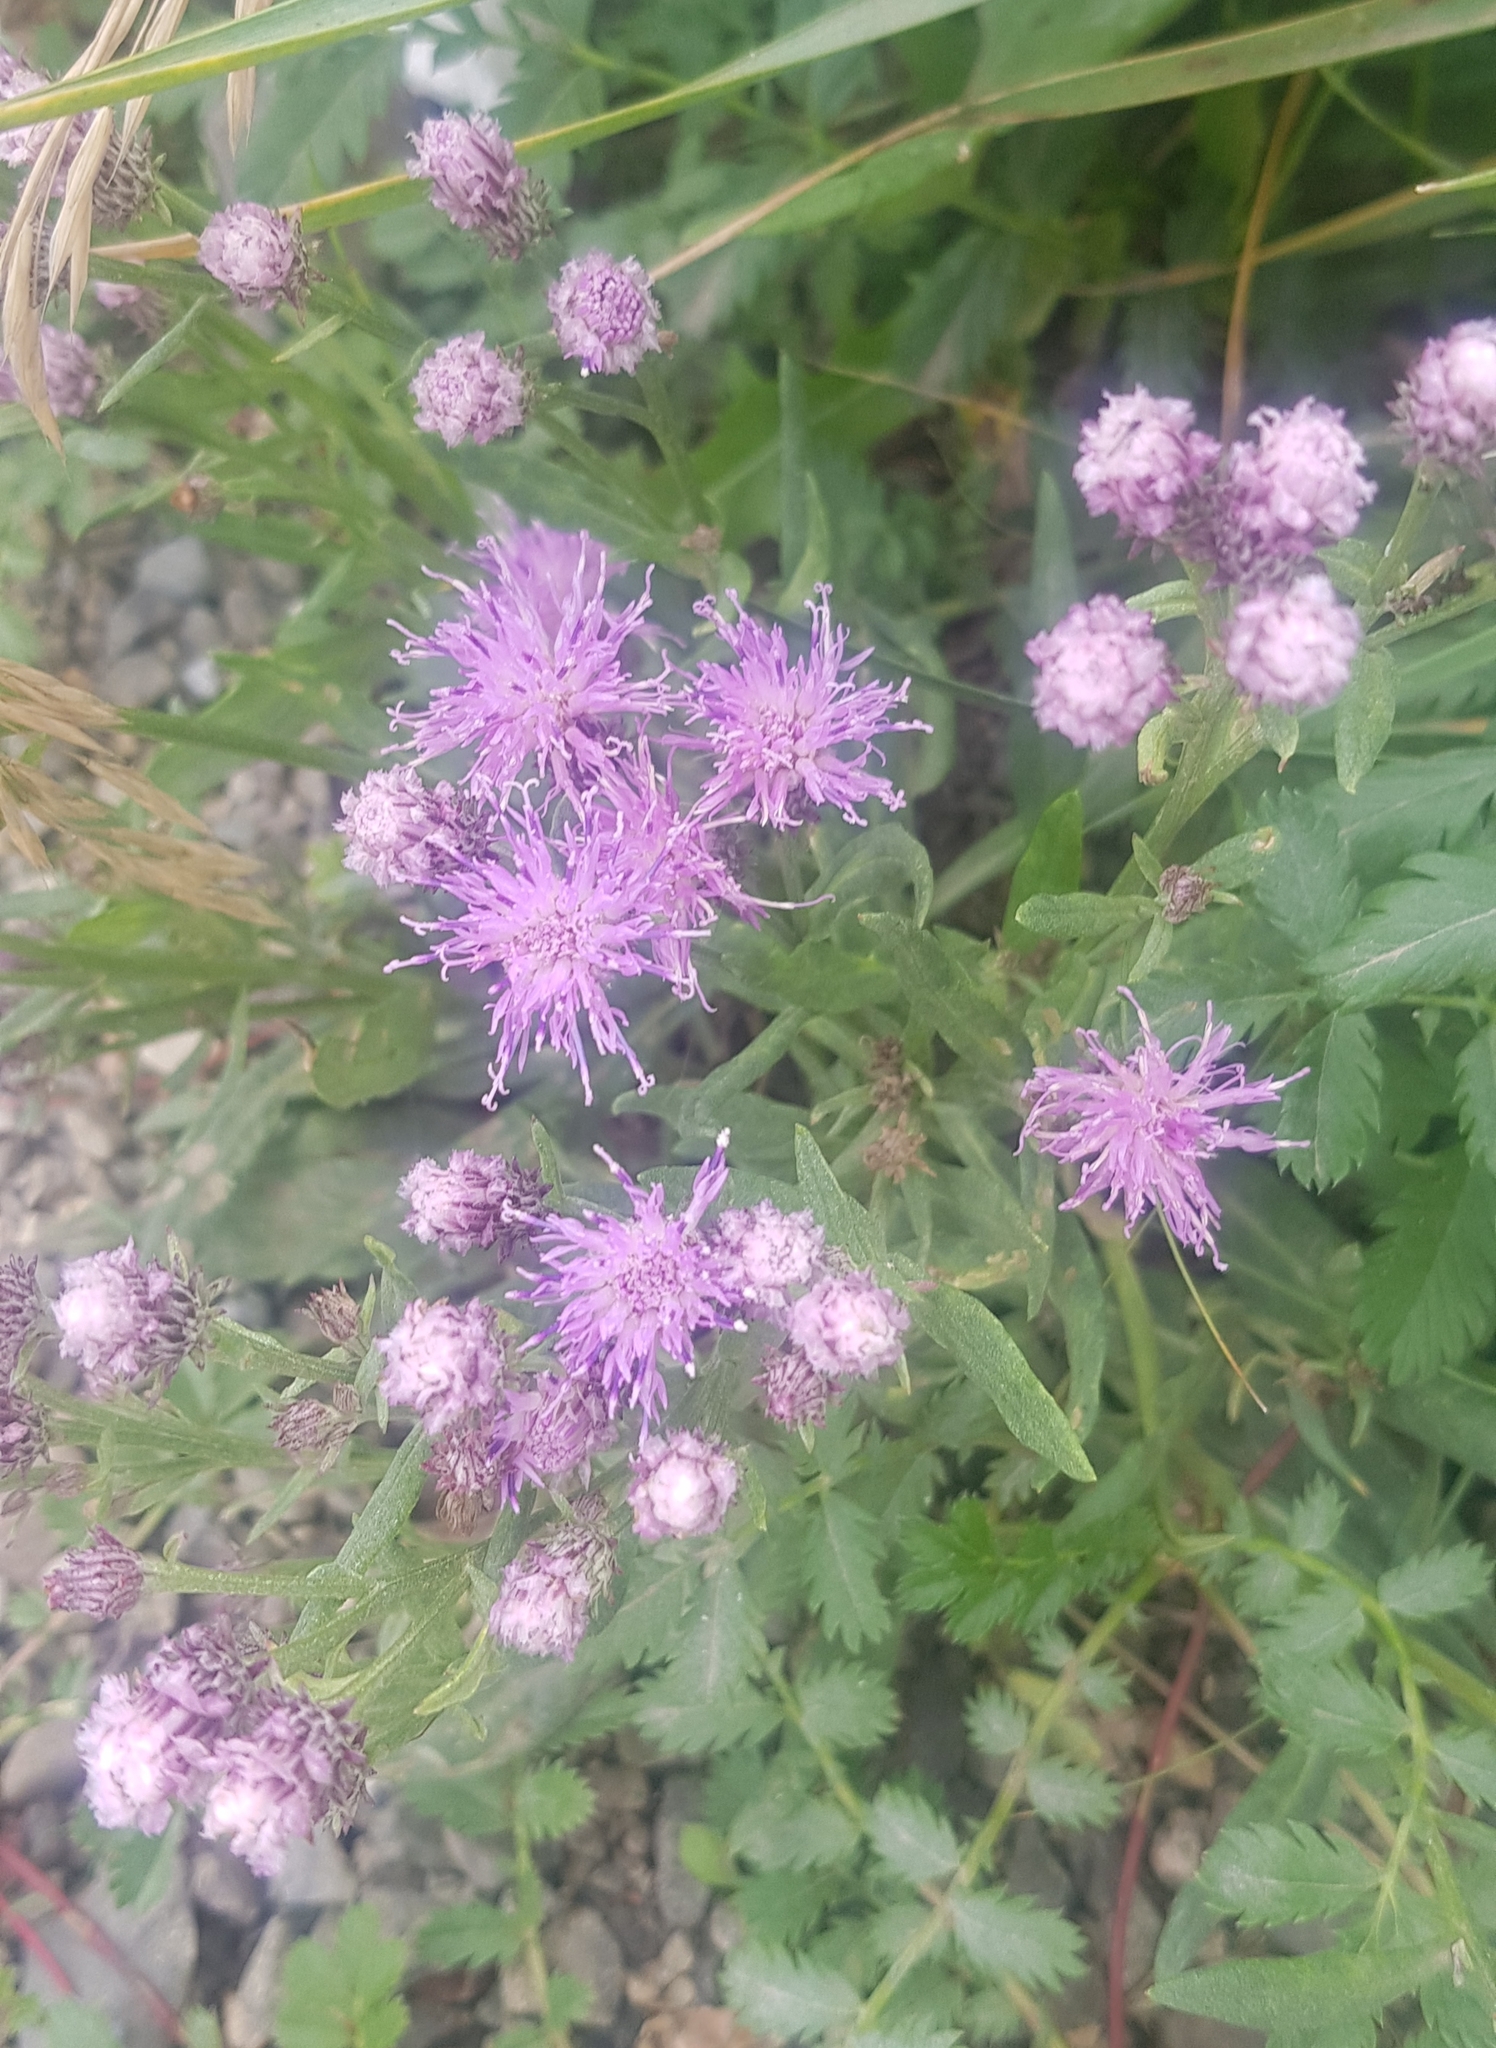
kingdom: Plantae
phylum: Tracheophyta
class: Magnoliopsida
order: Asterales
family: Asteraceae
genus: Saussurea
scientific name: Saussurea salicifolia
